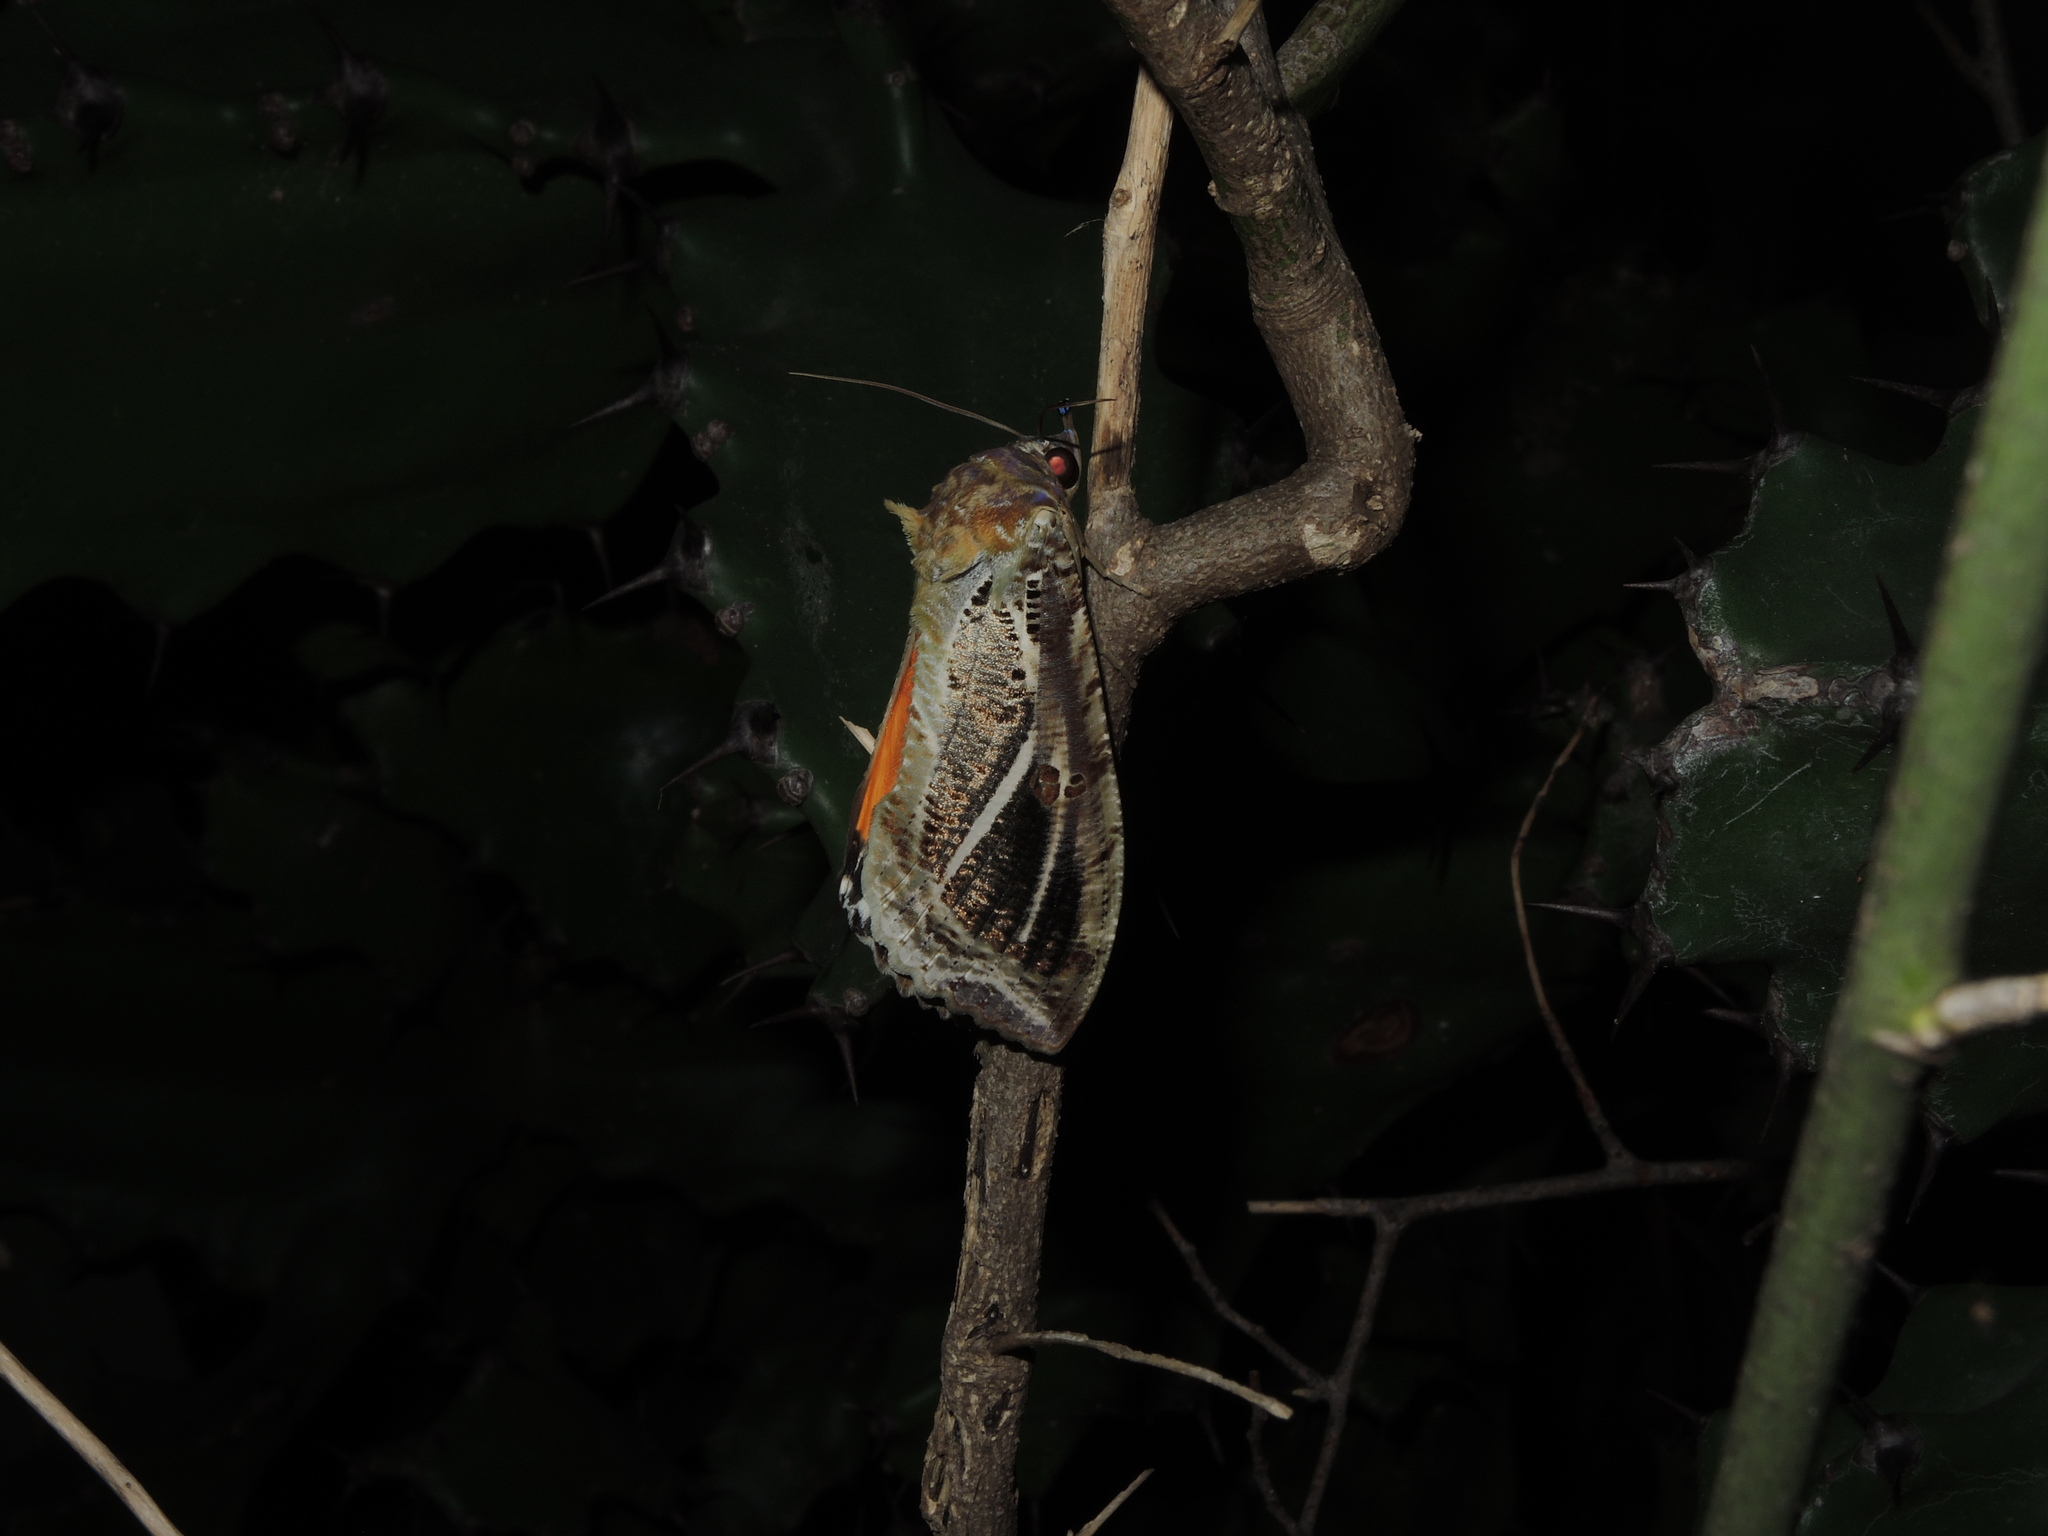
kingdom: Animalia
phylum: Arthropoda
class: Insecta
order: Lepidoptera
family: Erebidae
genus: Eudocima
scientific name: Eudocima materna
